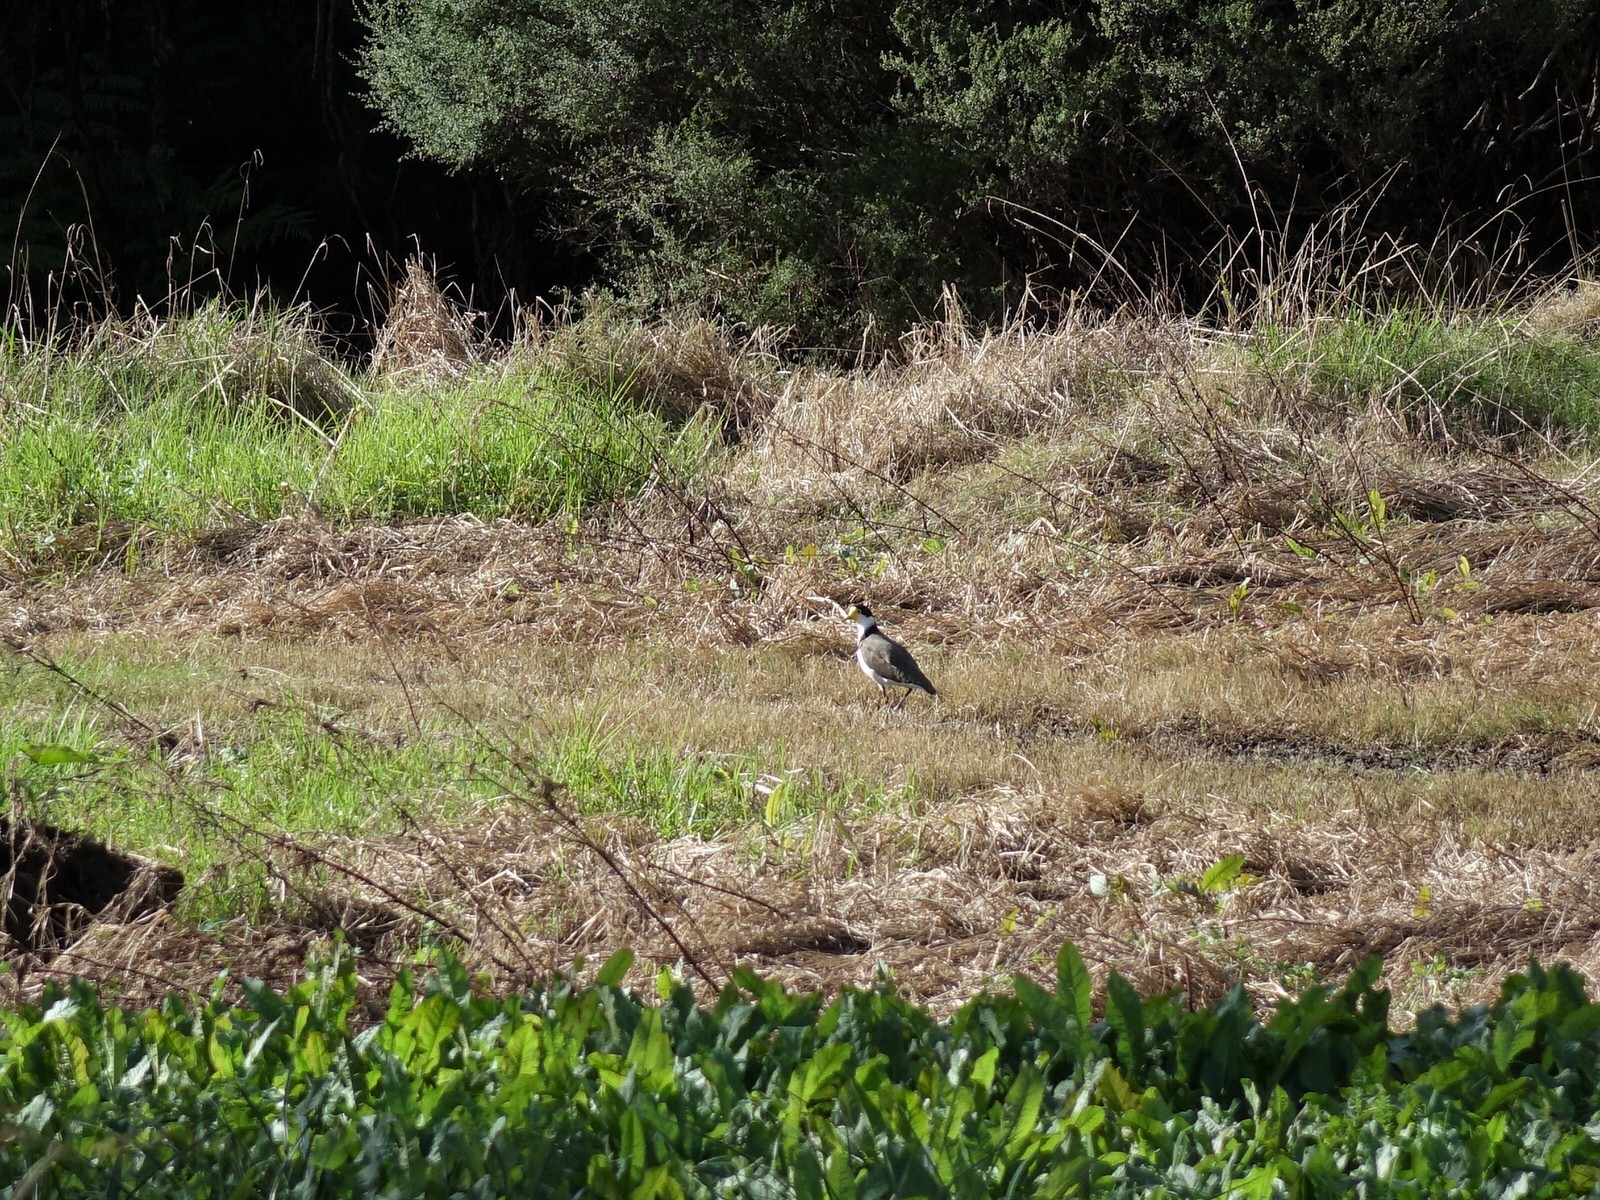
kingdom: Animalia
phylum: Chordata
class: Aves
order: Charadriiformes
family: Charadriidae
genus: Vanellus
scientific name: Vanellus miles
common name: Masked lapwing
